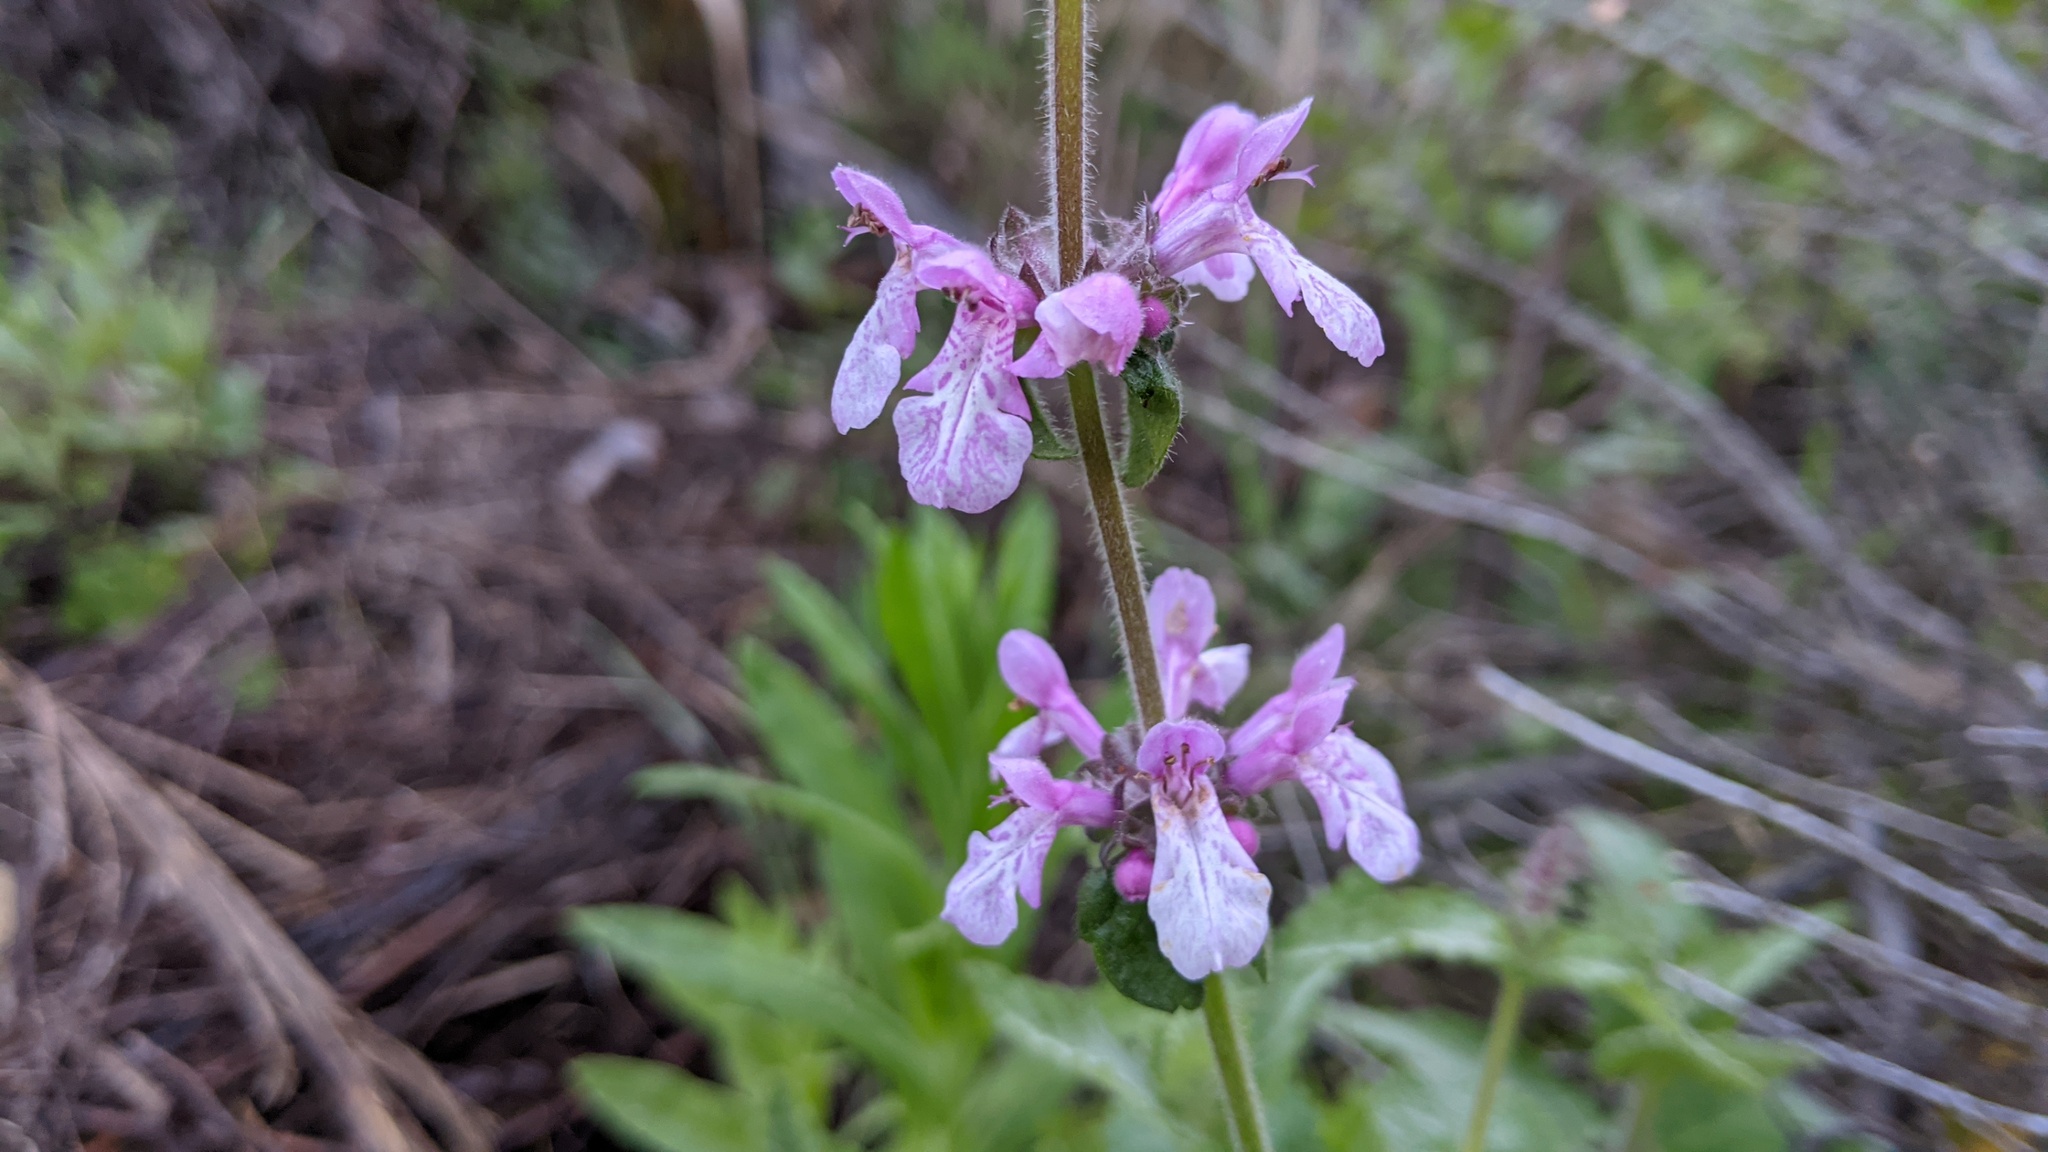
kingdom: Plantae
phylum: Tracheophyta
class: Magnoliopsida
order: Lamiales
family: Lamiaceae
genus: Stachys
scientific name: Stachys bullata
